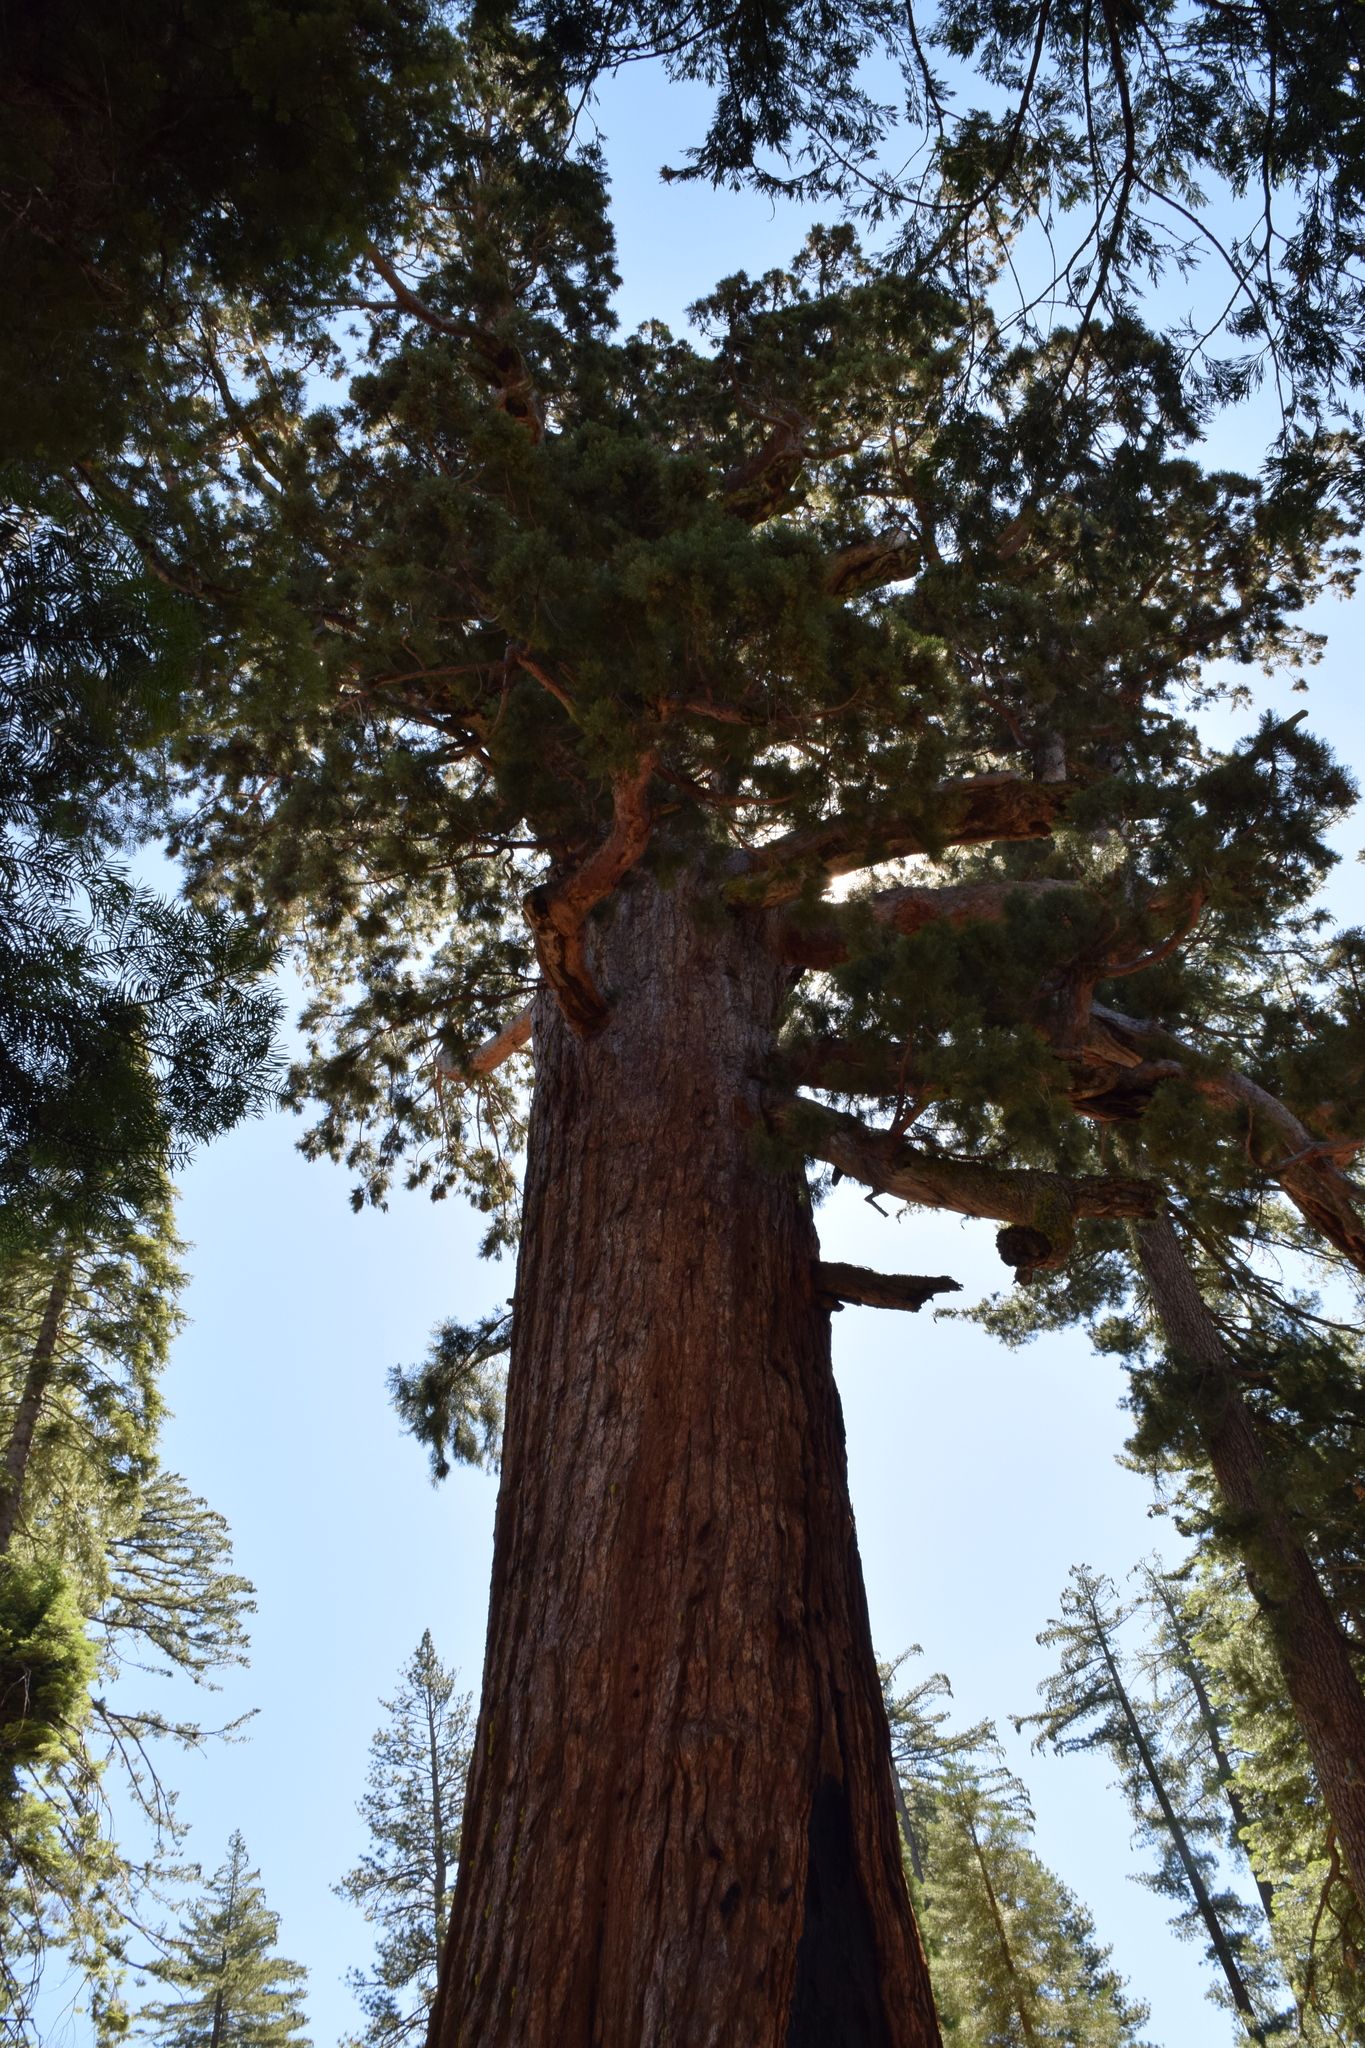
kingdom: Plantae
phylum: Tracheophyta
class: Pinopsida
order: Pinales
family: Cupressaceae
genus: Sequoiadendron
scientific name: Sequoiadendron giganteum
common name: Wellingtonia
